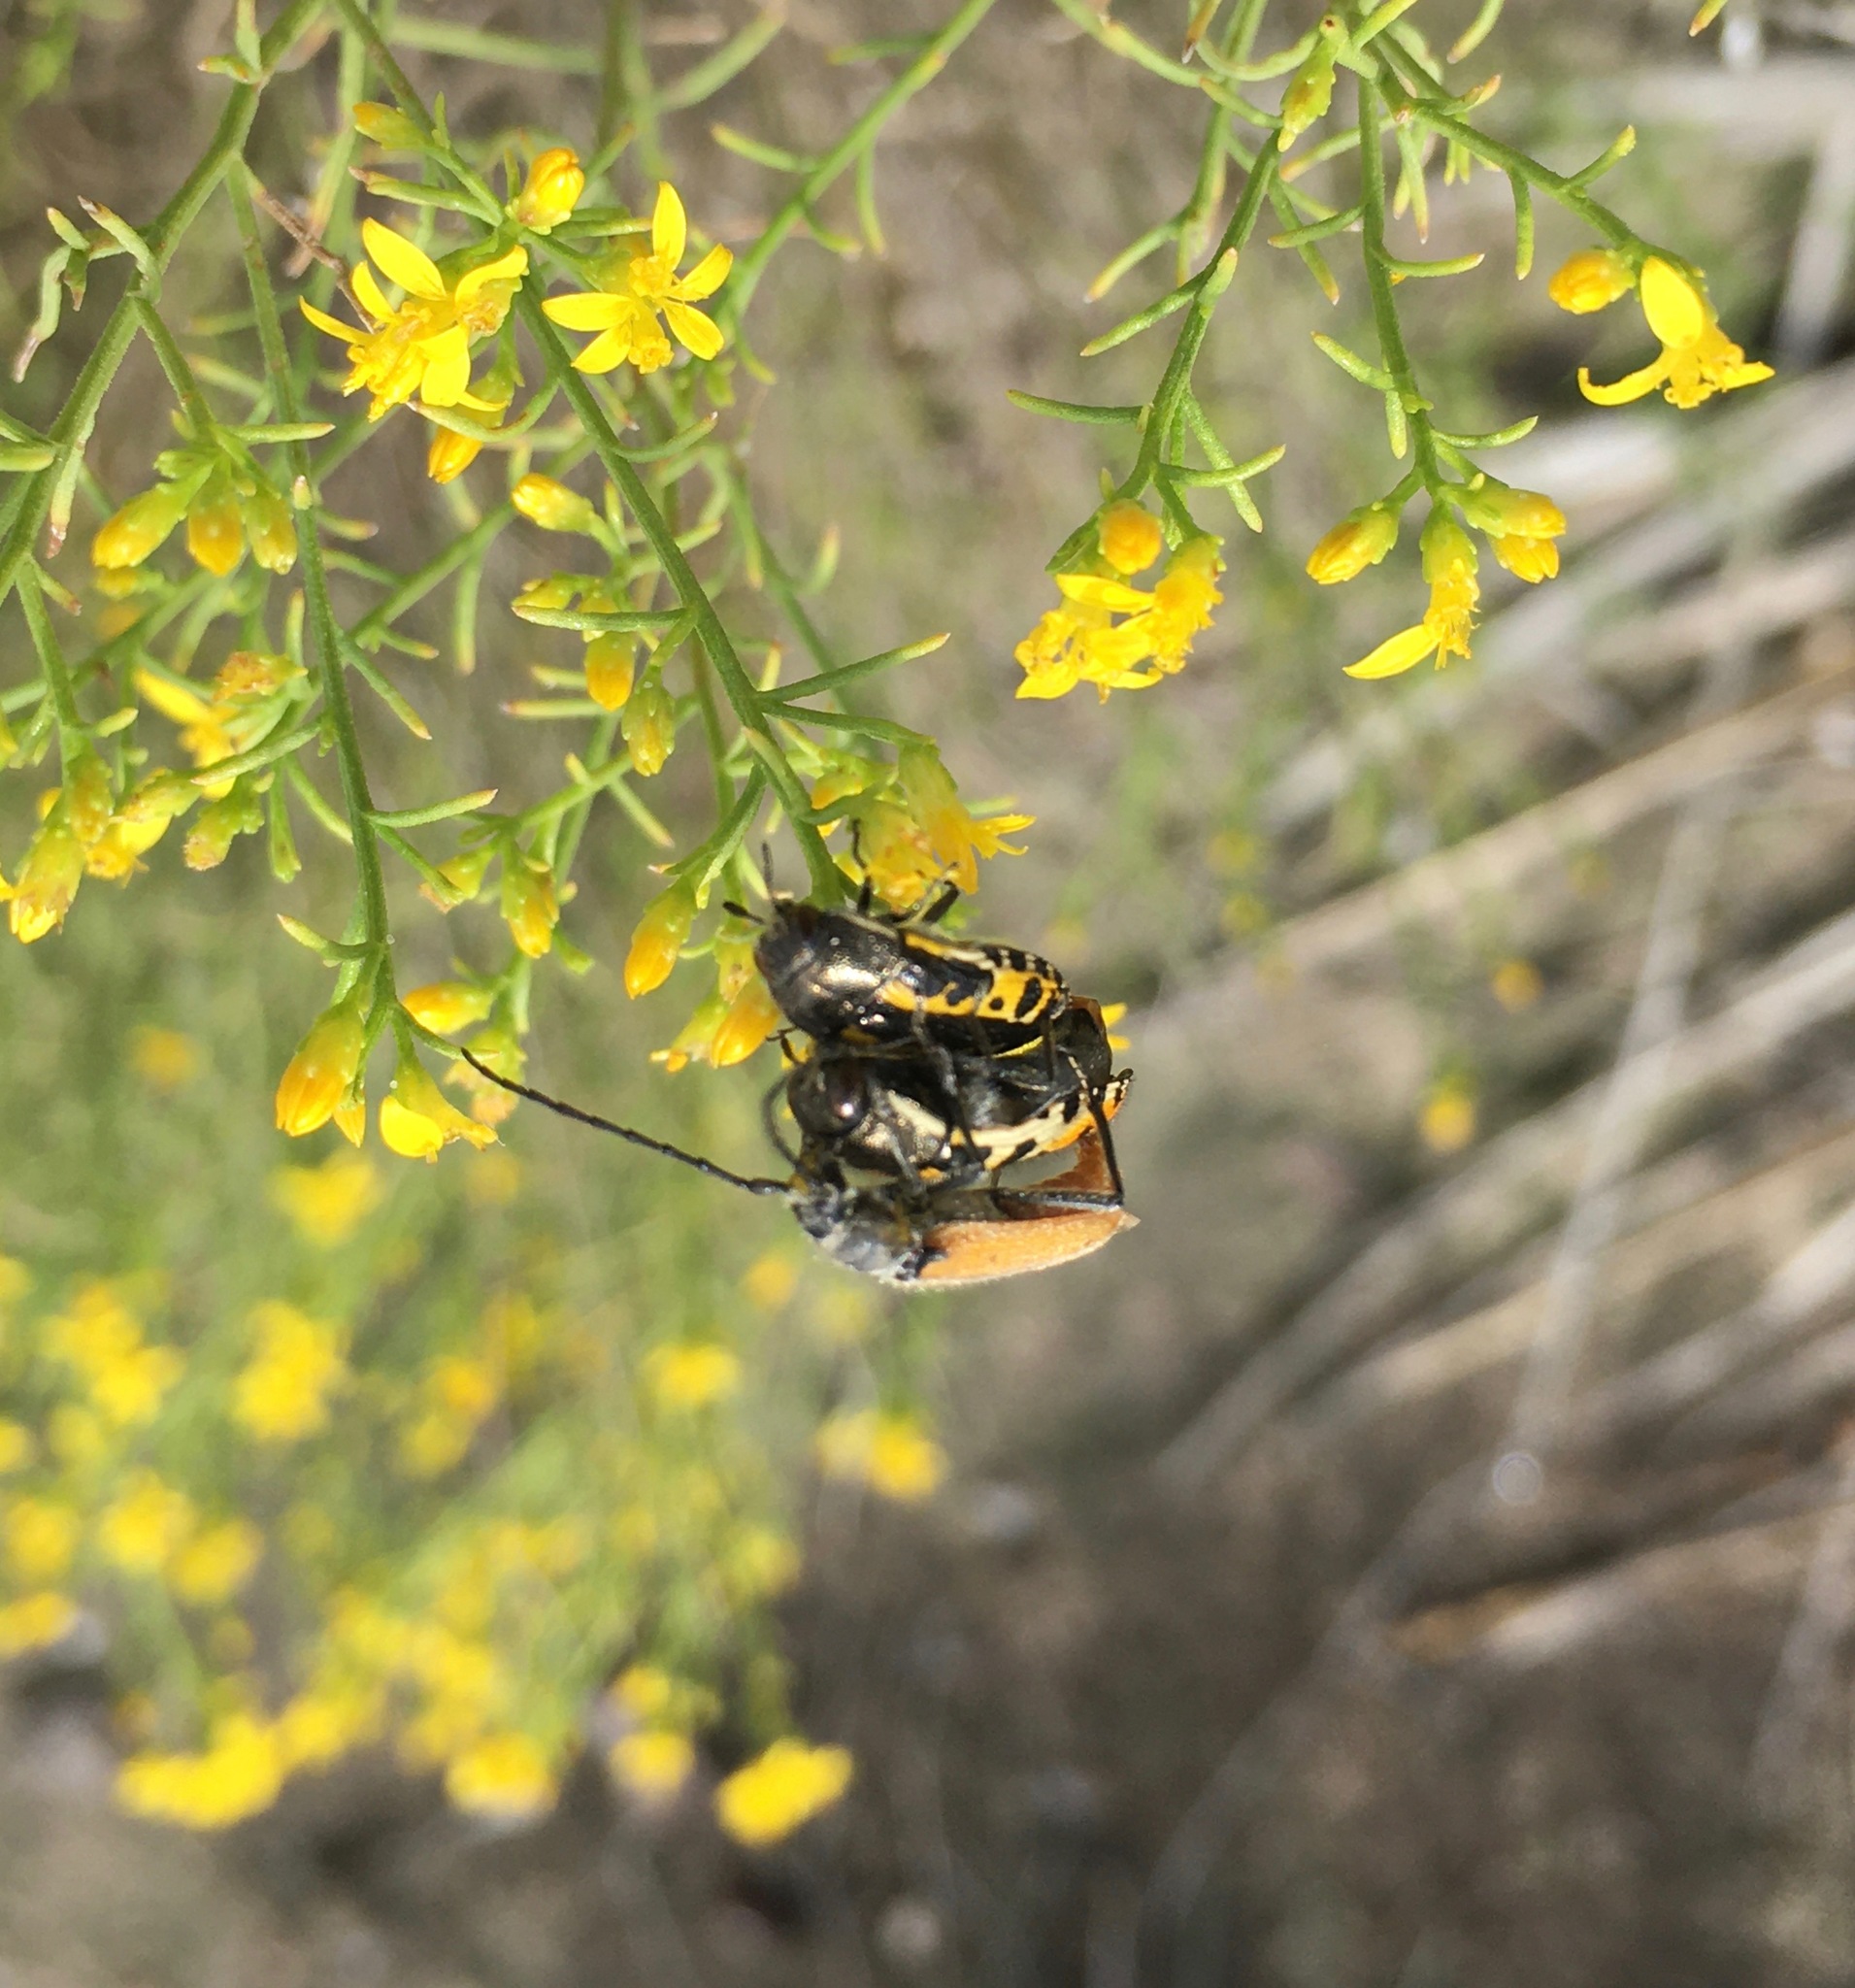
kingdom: Animalia
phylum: Arthropoda
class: Insecta
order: Coleoptera
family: Buprestidae
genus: Acmaeodera
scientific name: Acmaeodera scalaris
